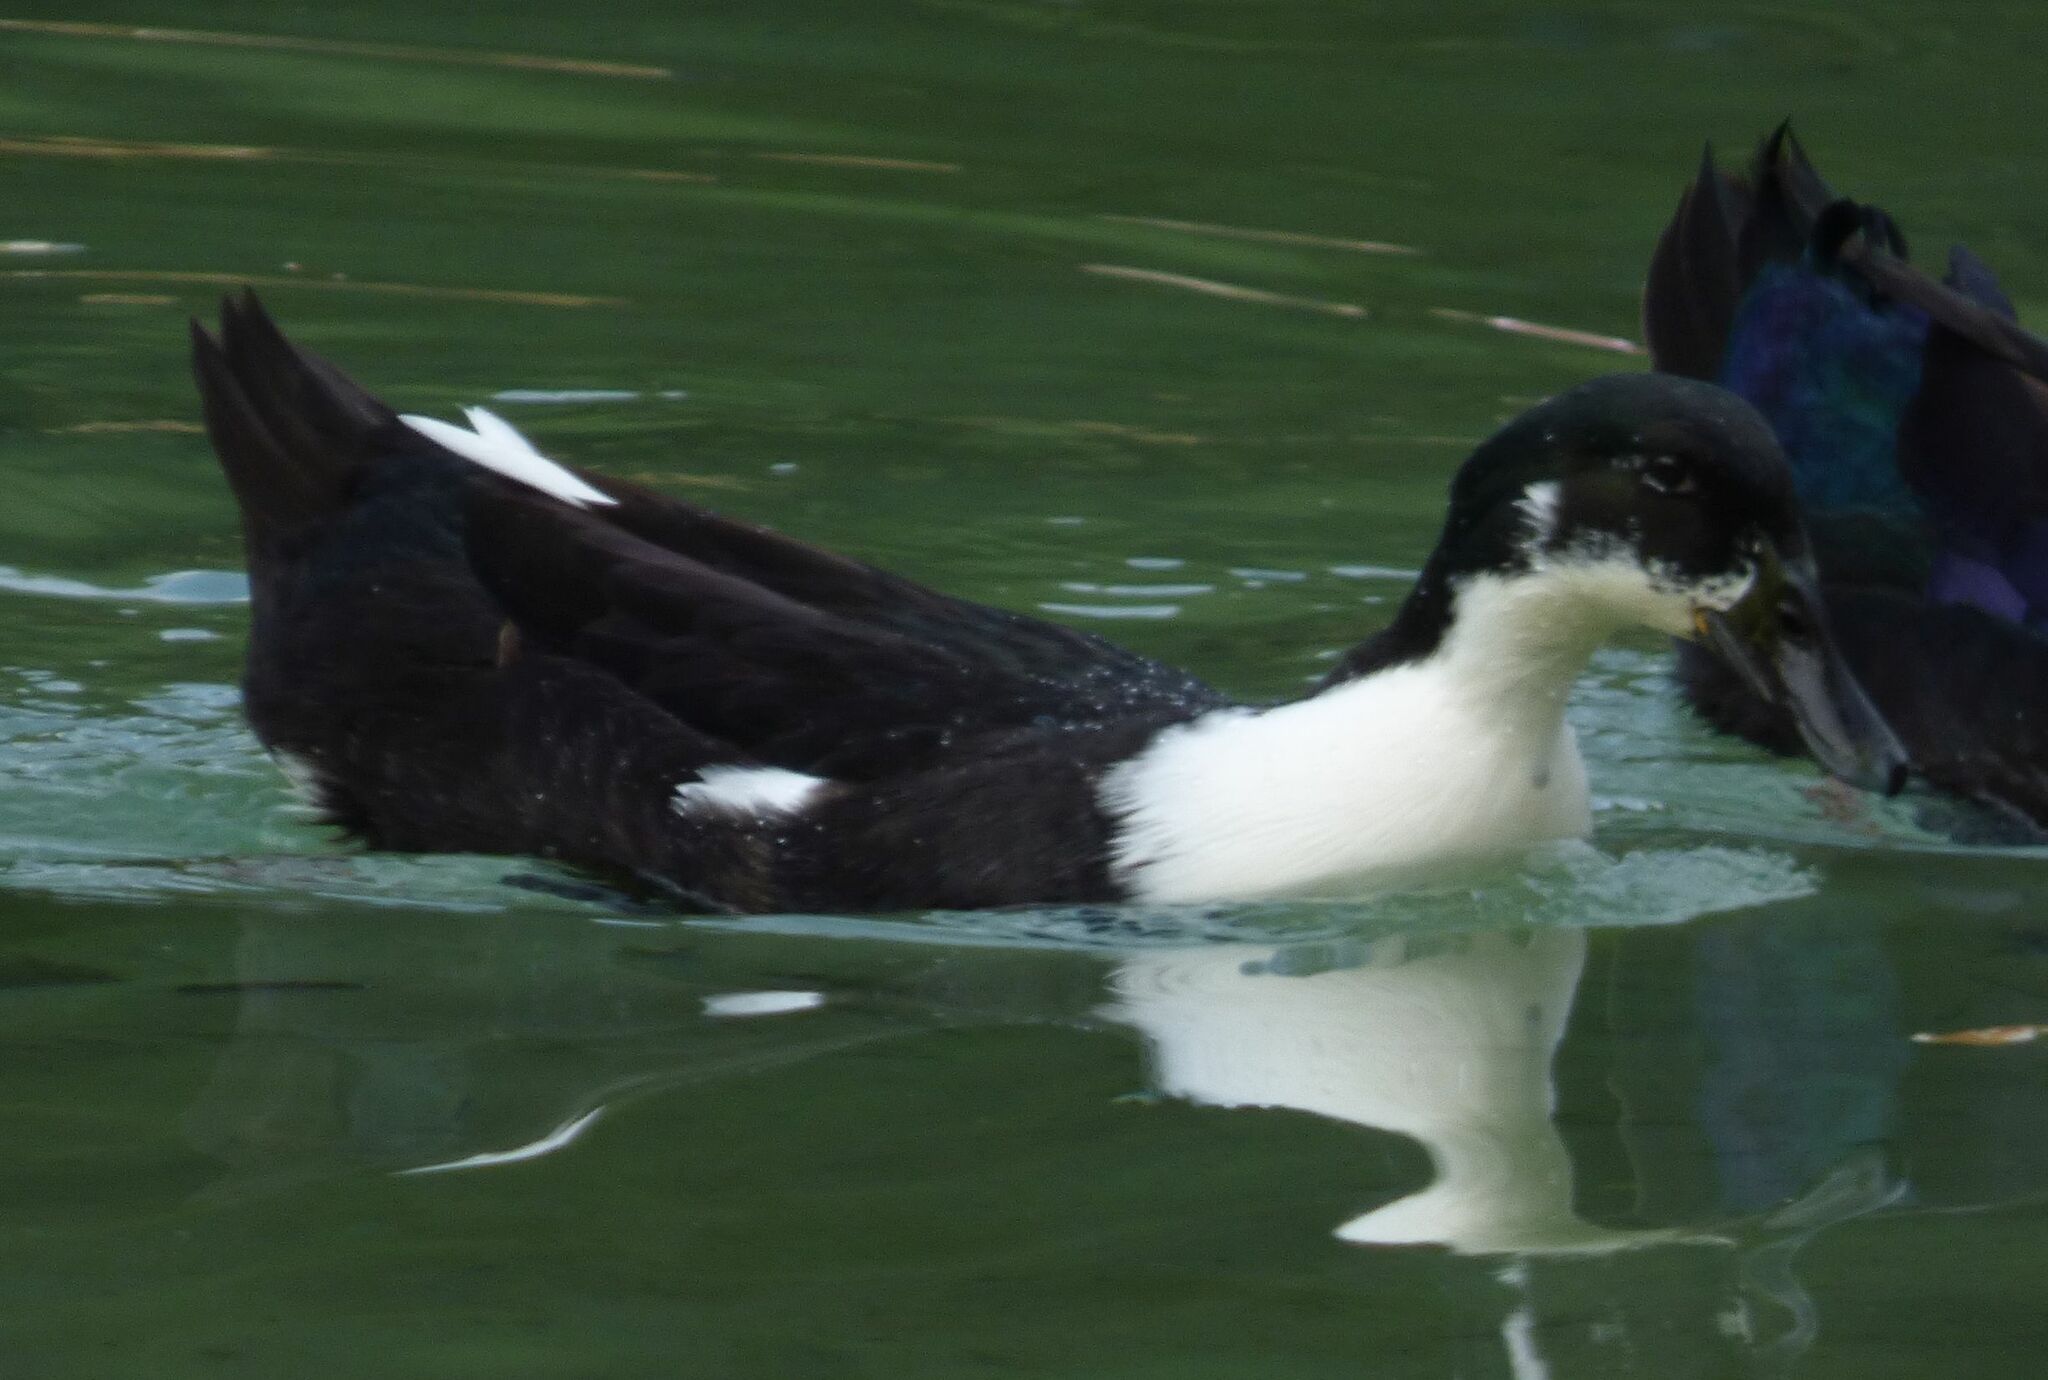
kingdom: Animalia
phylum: Chordata
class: Aves
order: Anseriformes
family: Anatidae
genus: Anas
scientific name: Anas platyrhynchos
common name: Mallard
